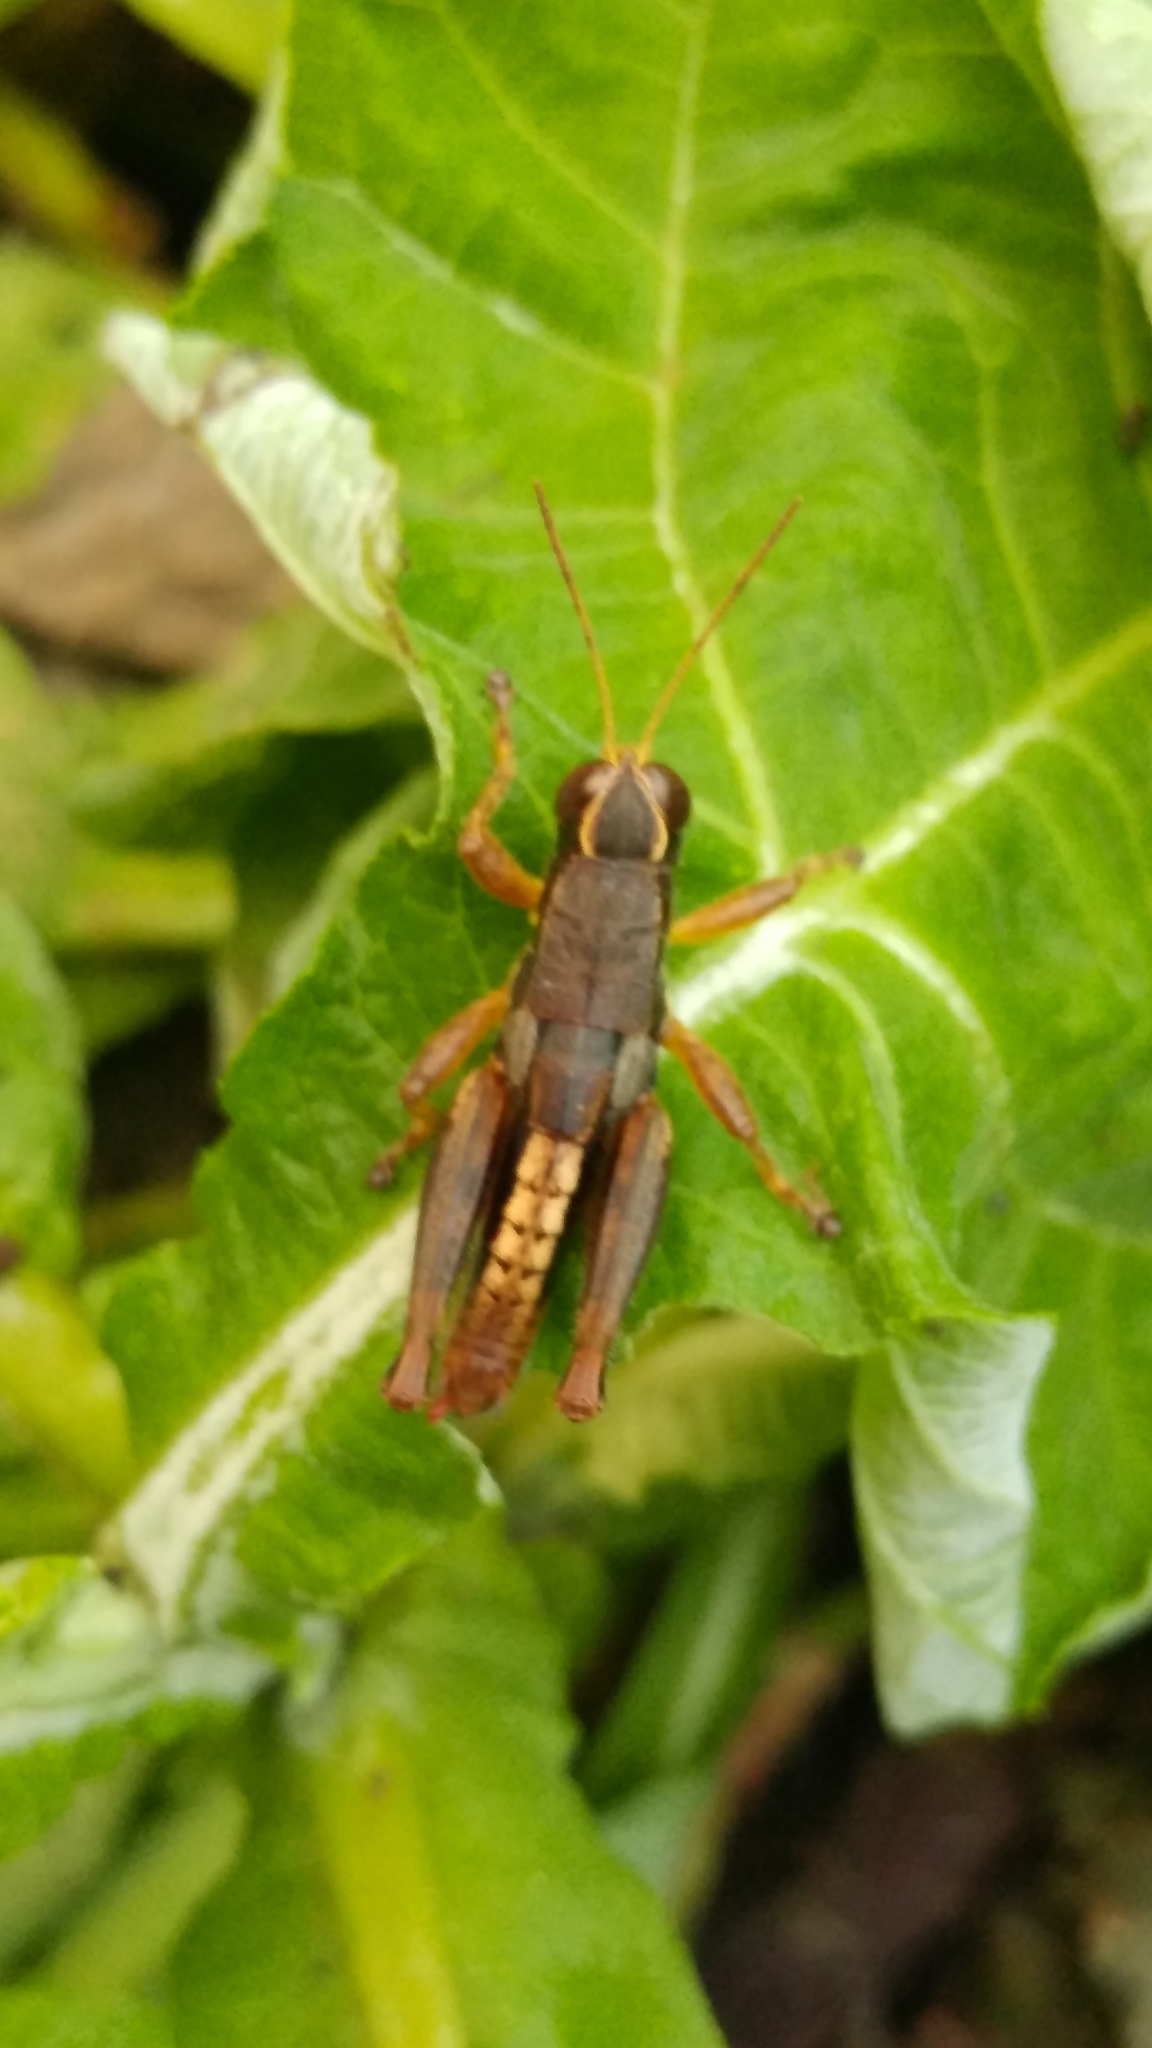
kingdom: Animalia
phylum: Arthropoda
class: Insecta
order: Orthoptera
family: Acrididae
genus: Huastecacris
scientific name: Huastecacris truncatipennis
